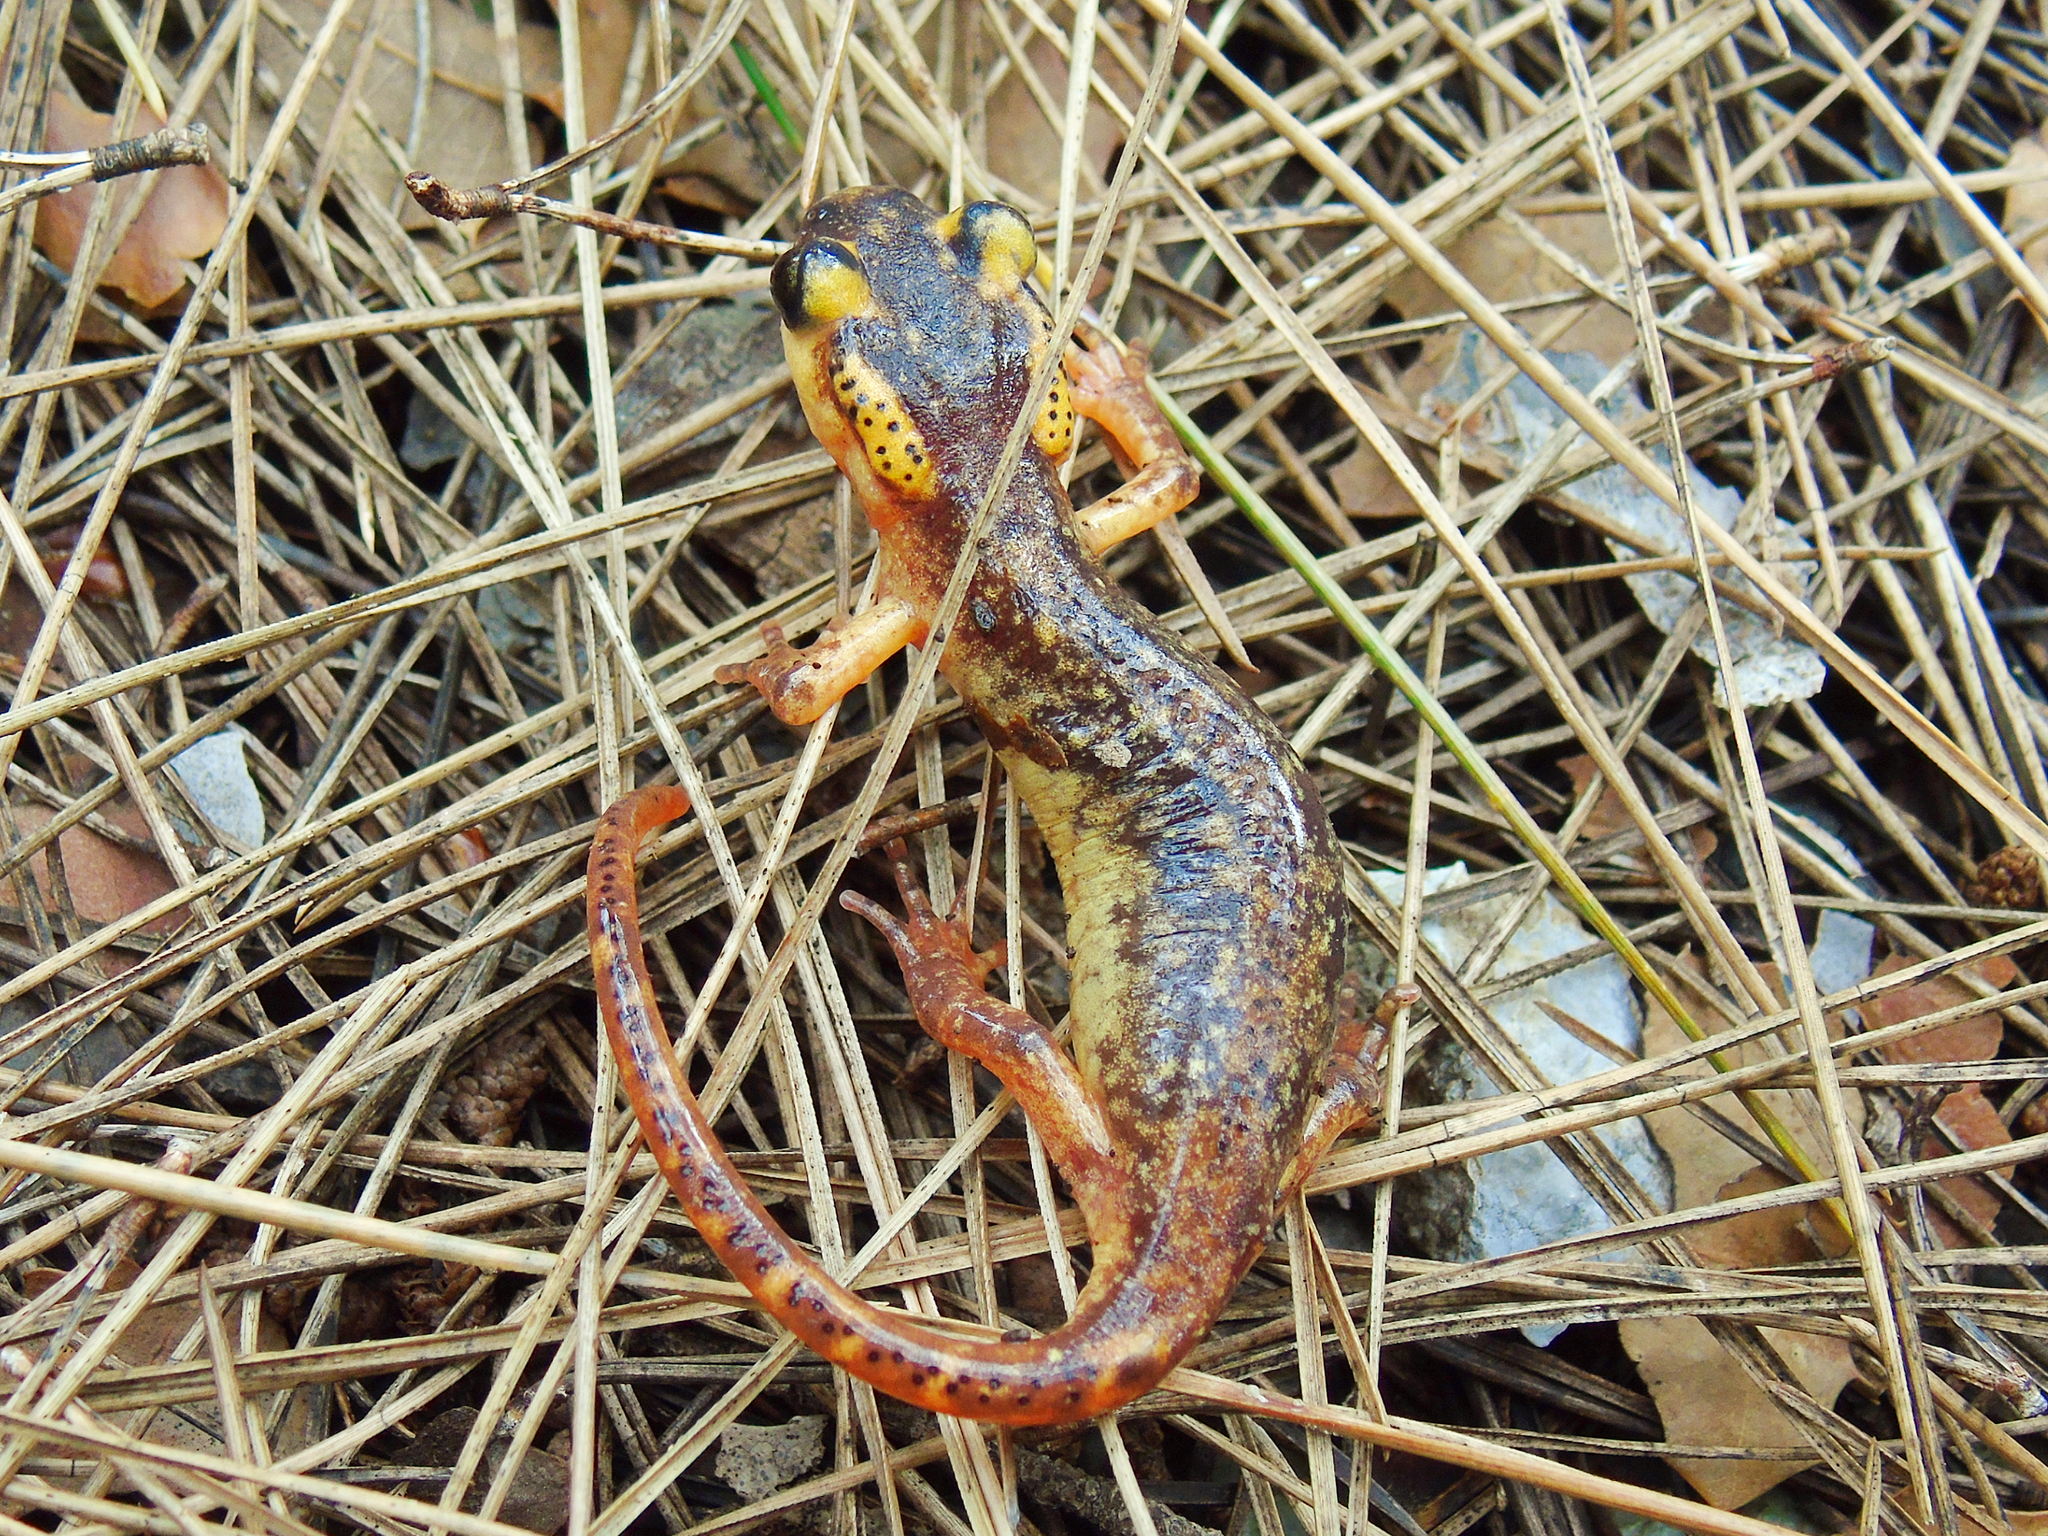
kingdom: Animalia
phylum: Chordata
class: Amphibia
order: Caudata
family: Salamandridae
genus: Lyciasalamandra
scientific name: Lyciasalamandra antalyana
